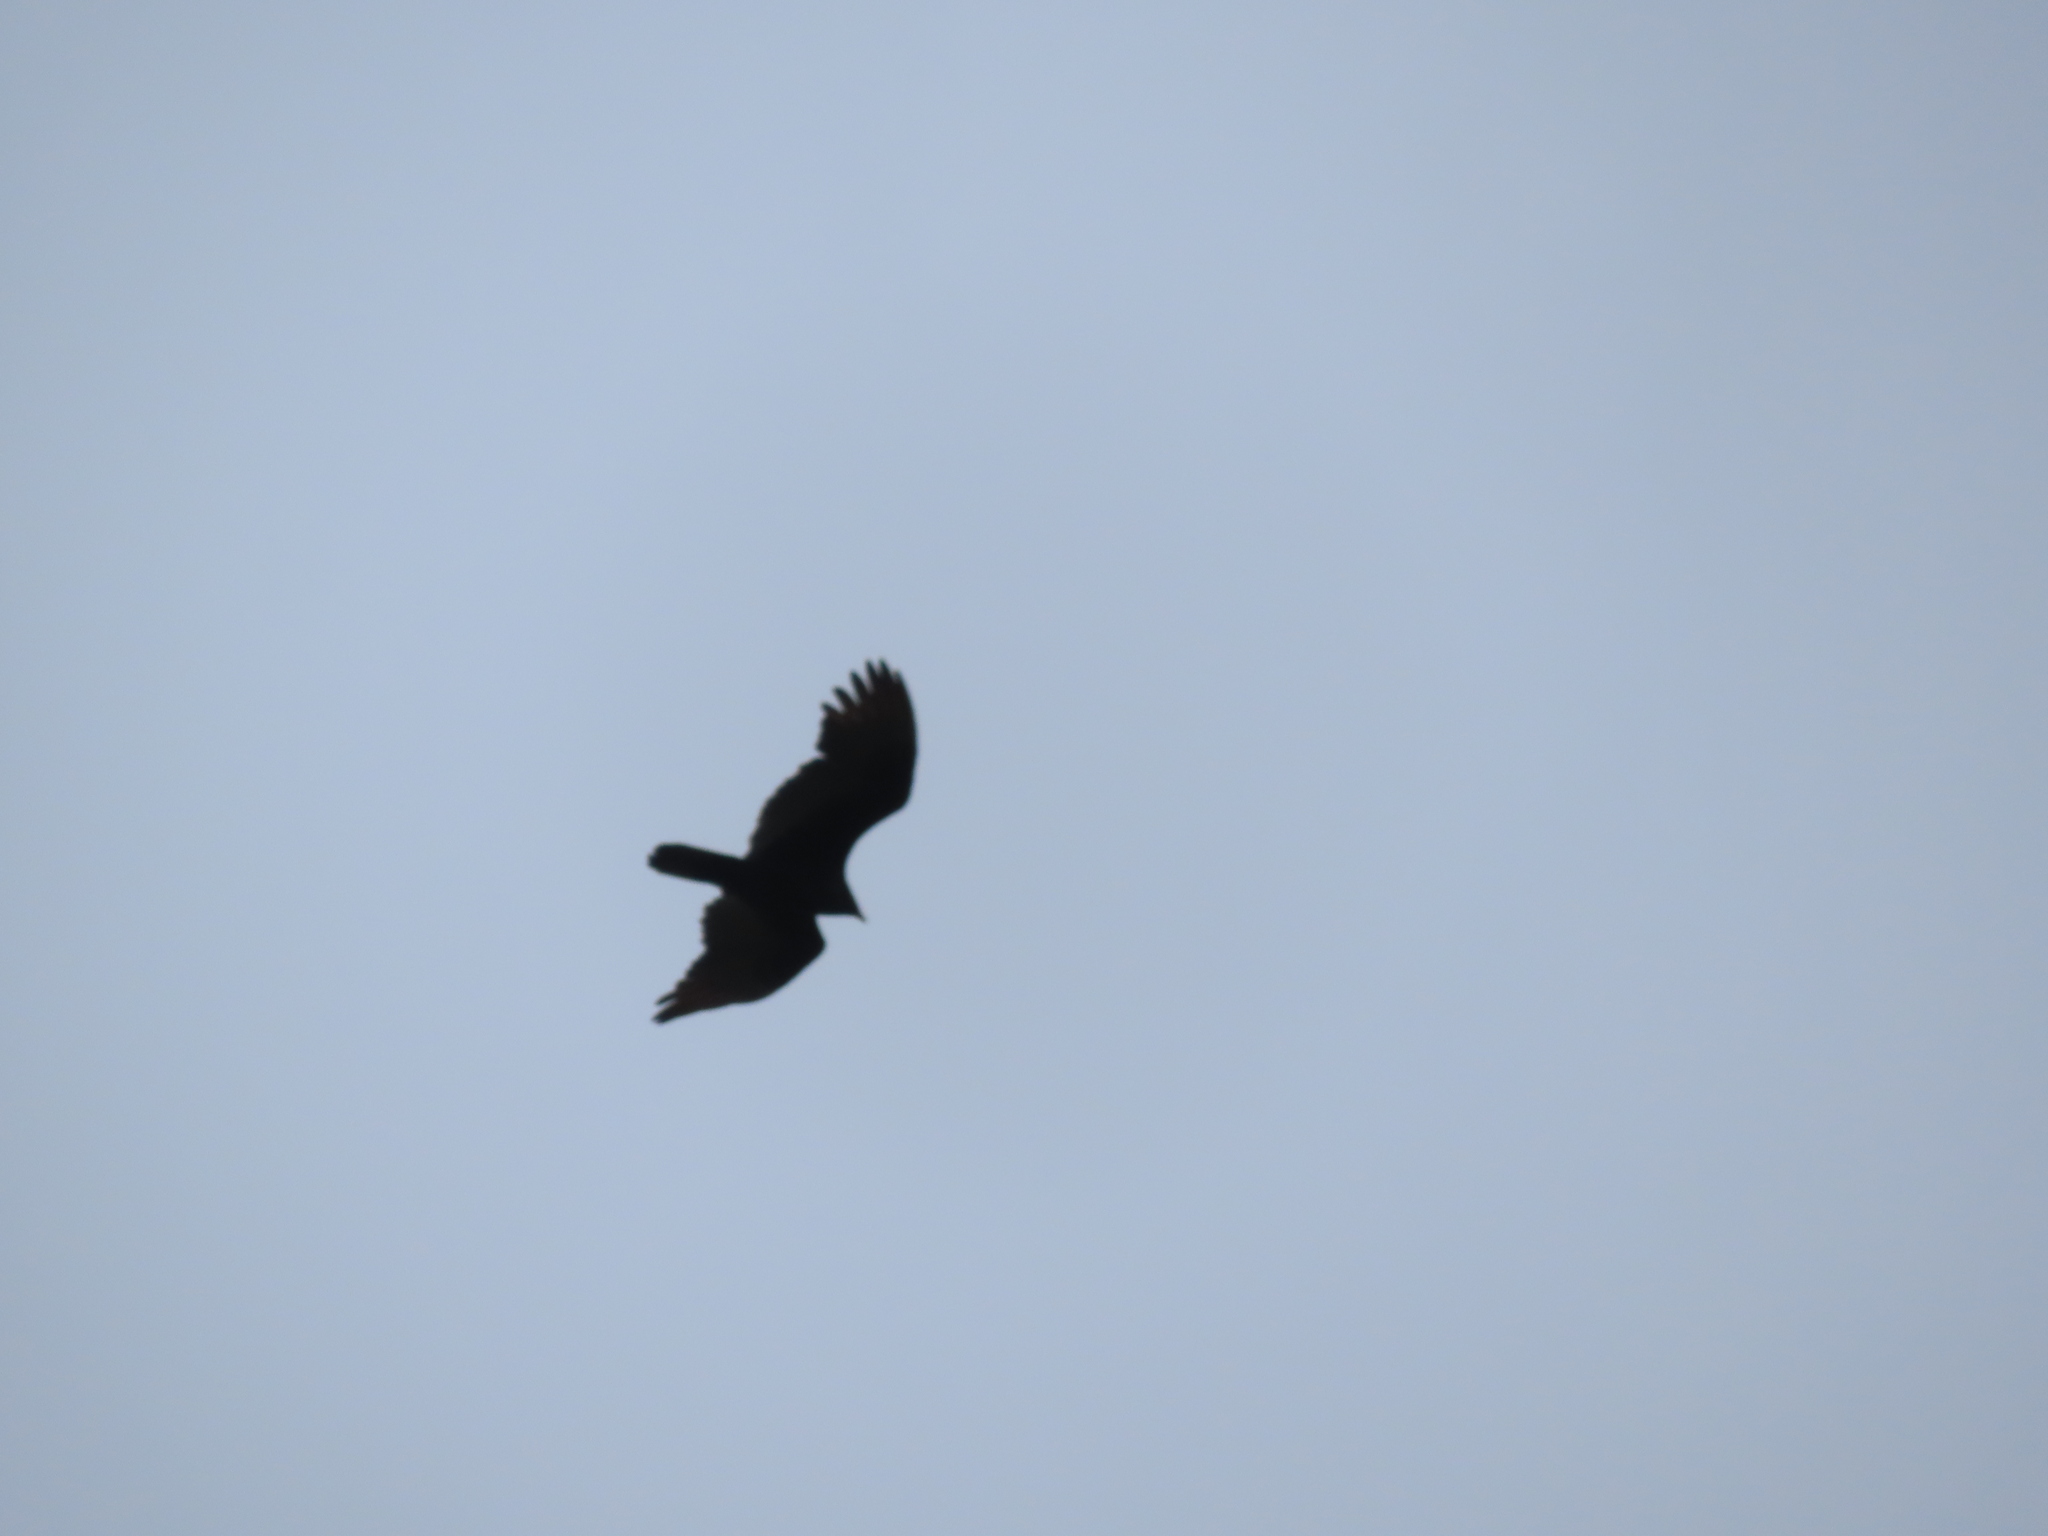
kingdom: Animalia
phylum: Chordata
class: Aves
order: Accipitriformes
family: Cathartidae
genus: Cathartes
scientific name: Cathartes aura
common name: Turkey vulture
